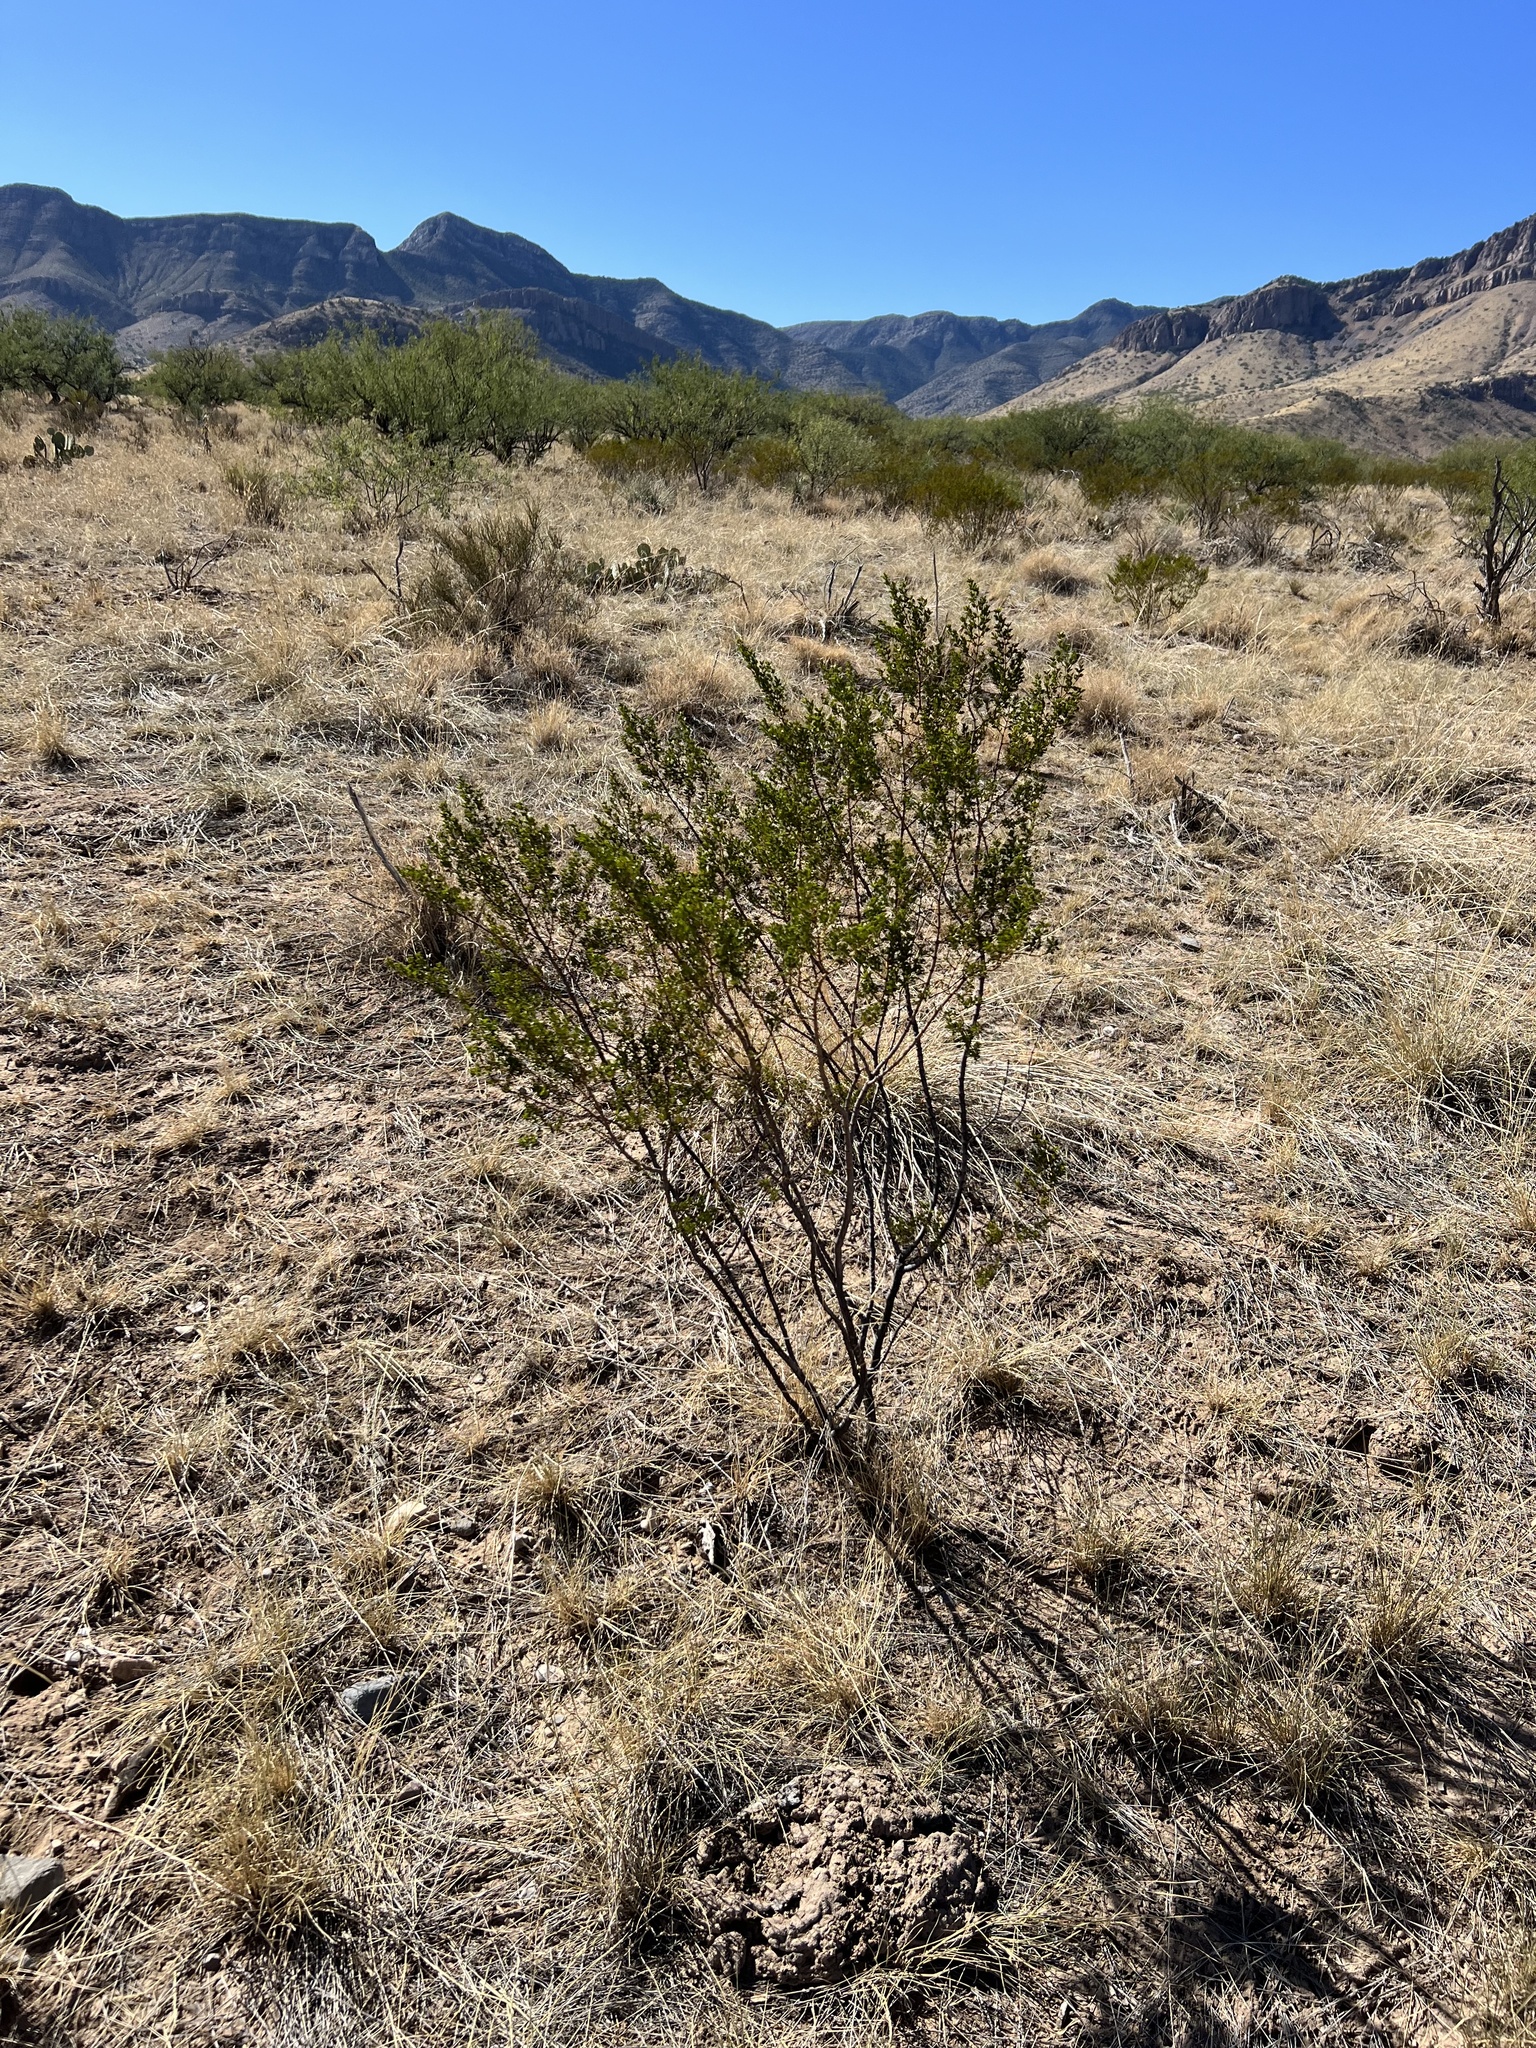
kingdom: Plantae
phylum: Tracheophyta
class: Magnoliopsida
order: Zygophyllales
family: Zygophyllaceae
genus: Larrea
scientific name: Larrea tridentata
